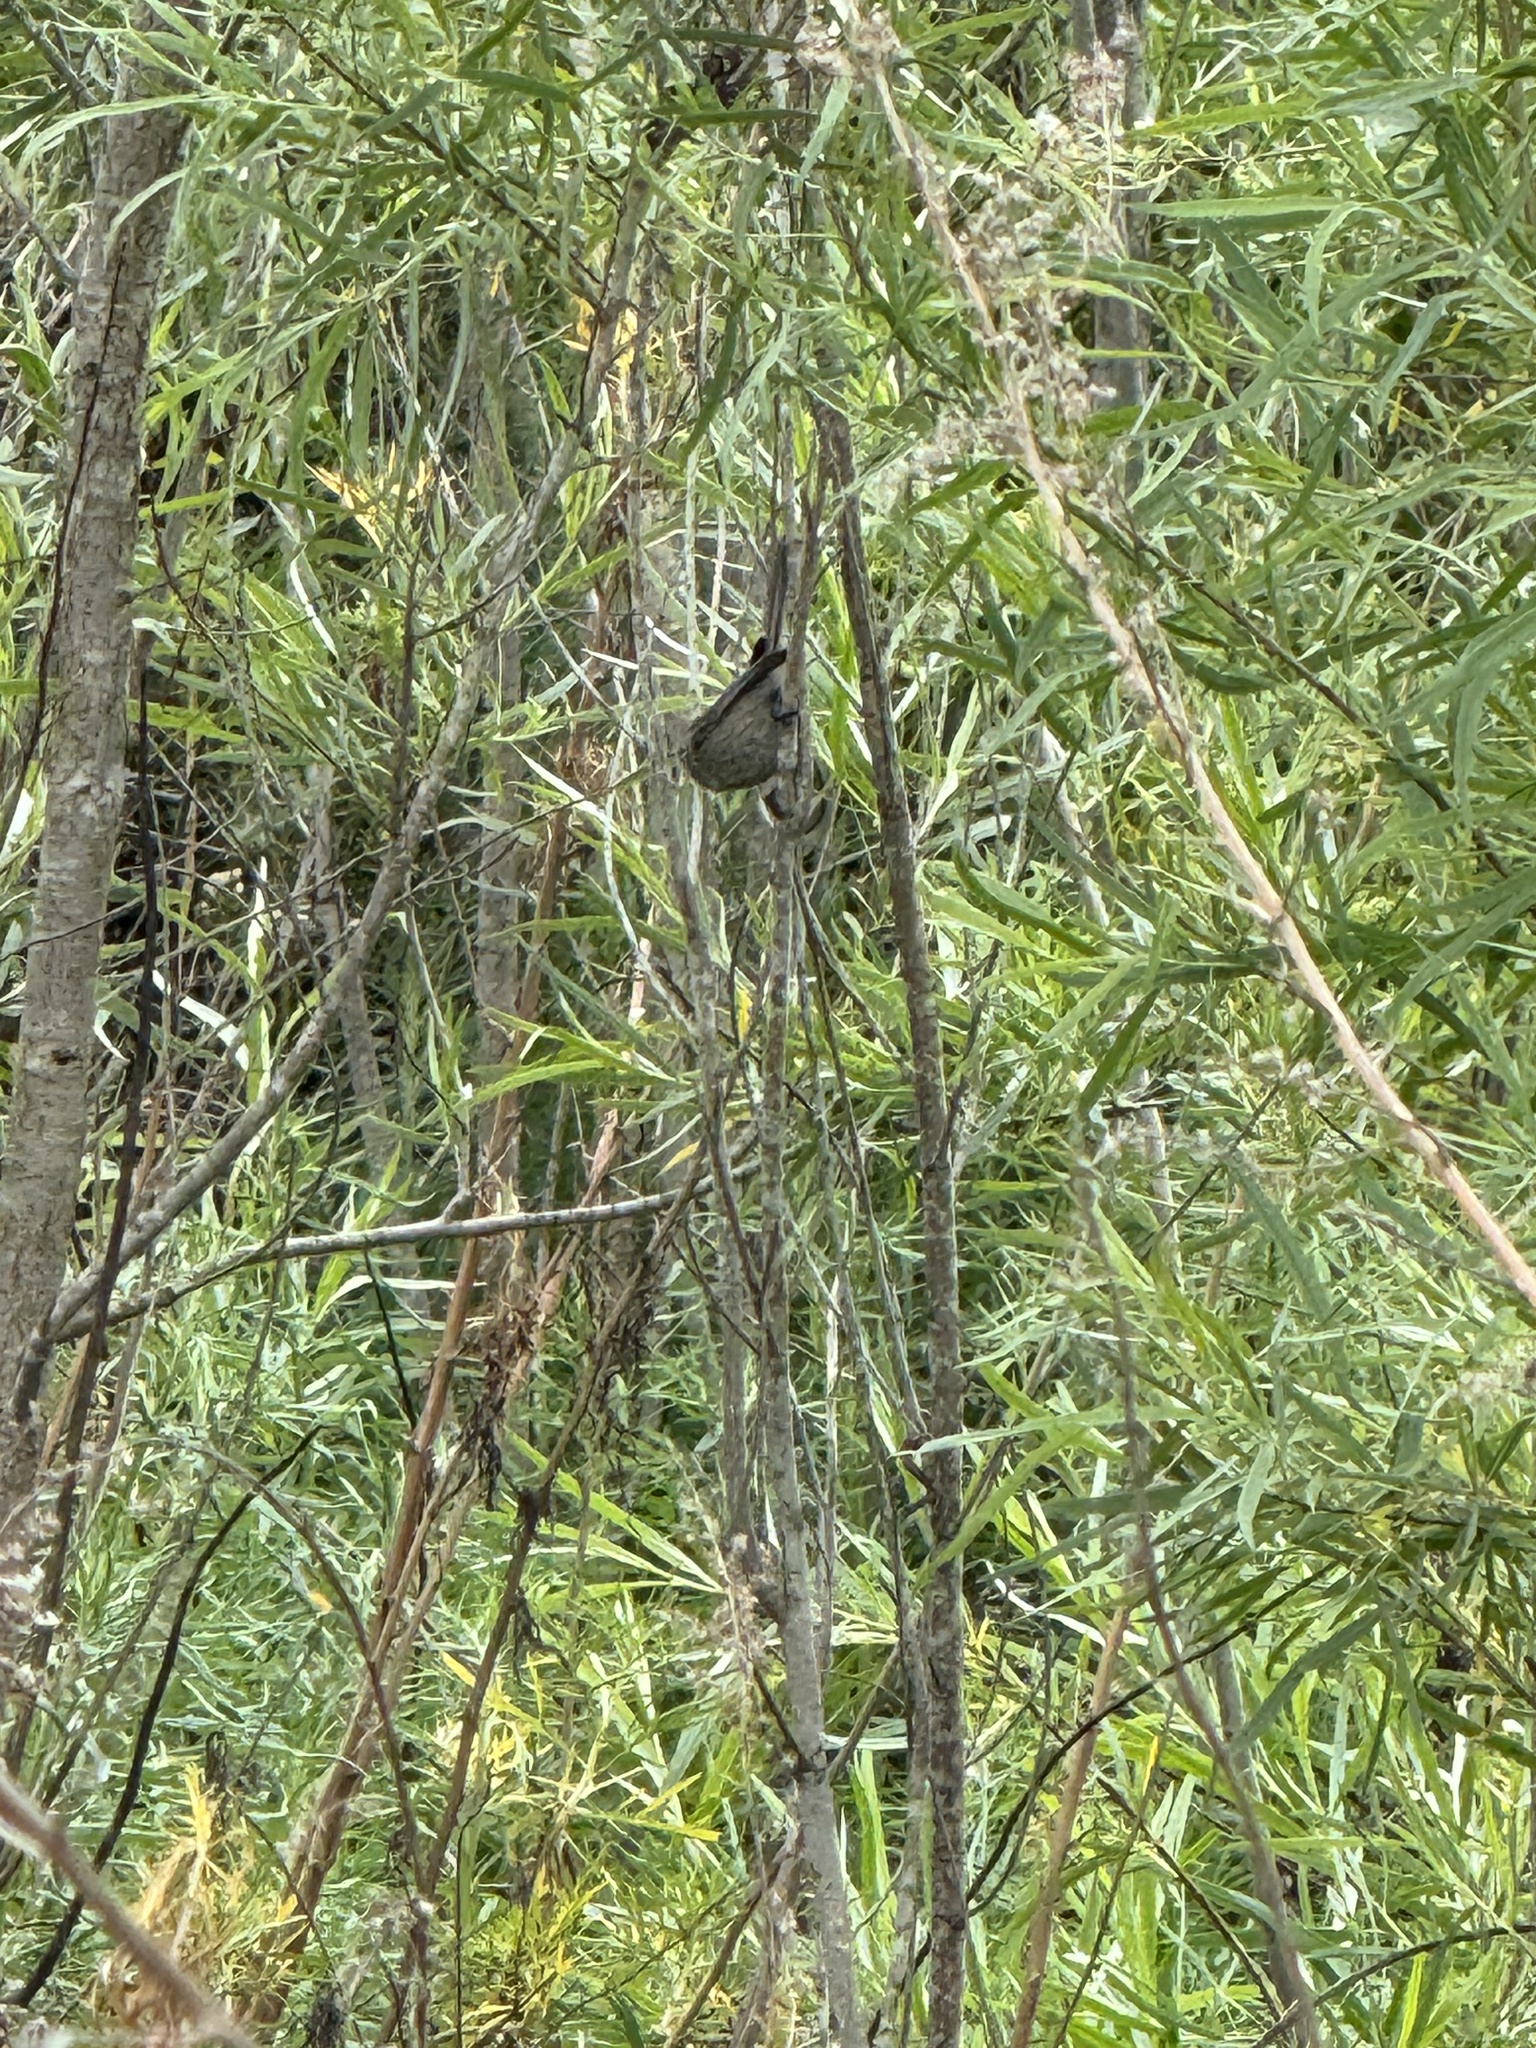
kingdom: Animalia
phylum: Chordata
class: Aves
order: Passeriformes
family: Sylviidae
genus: Chamaea
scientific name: Chamaea fasciata
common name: Wrentit
